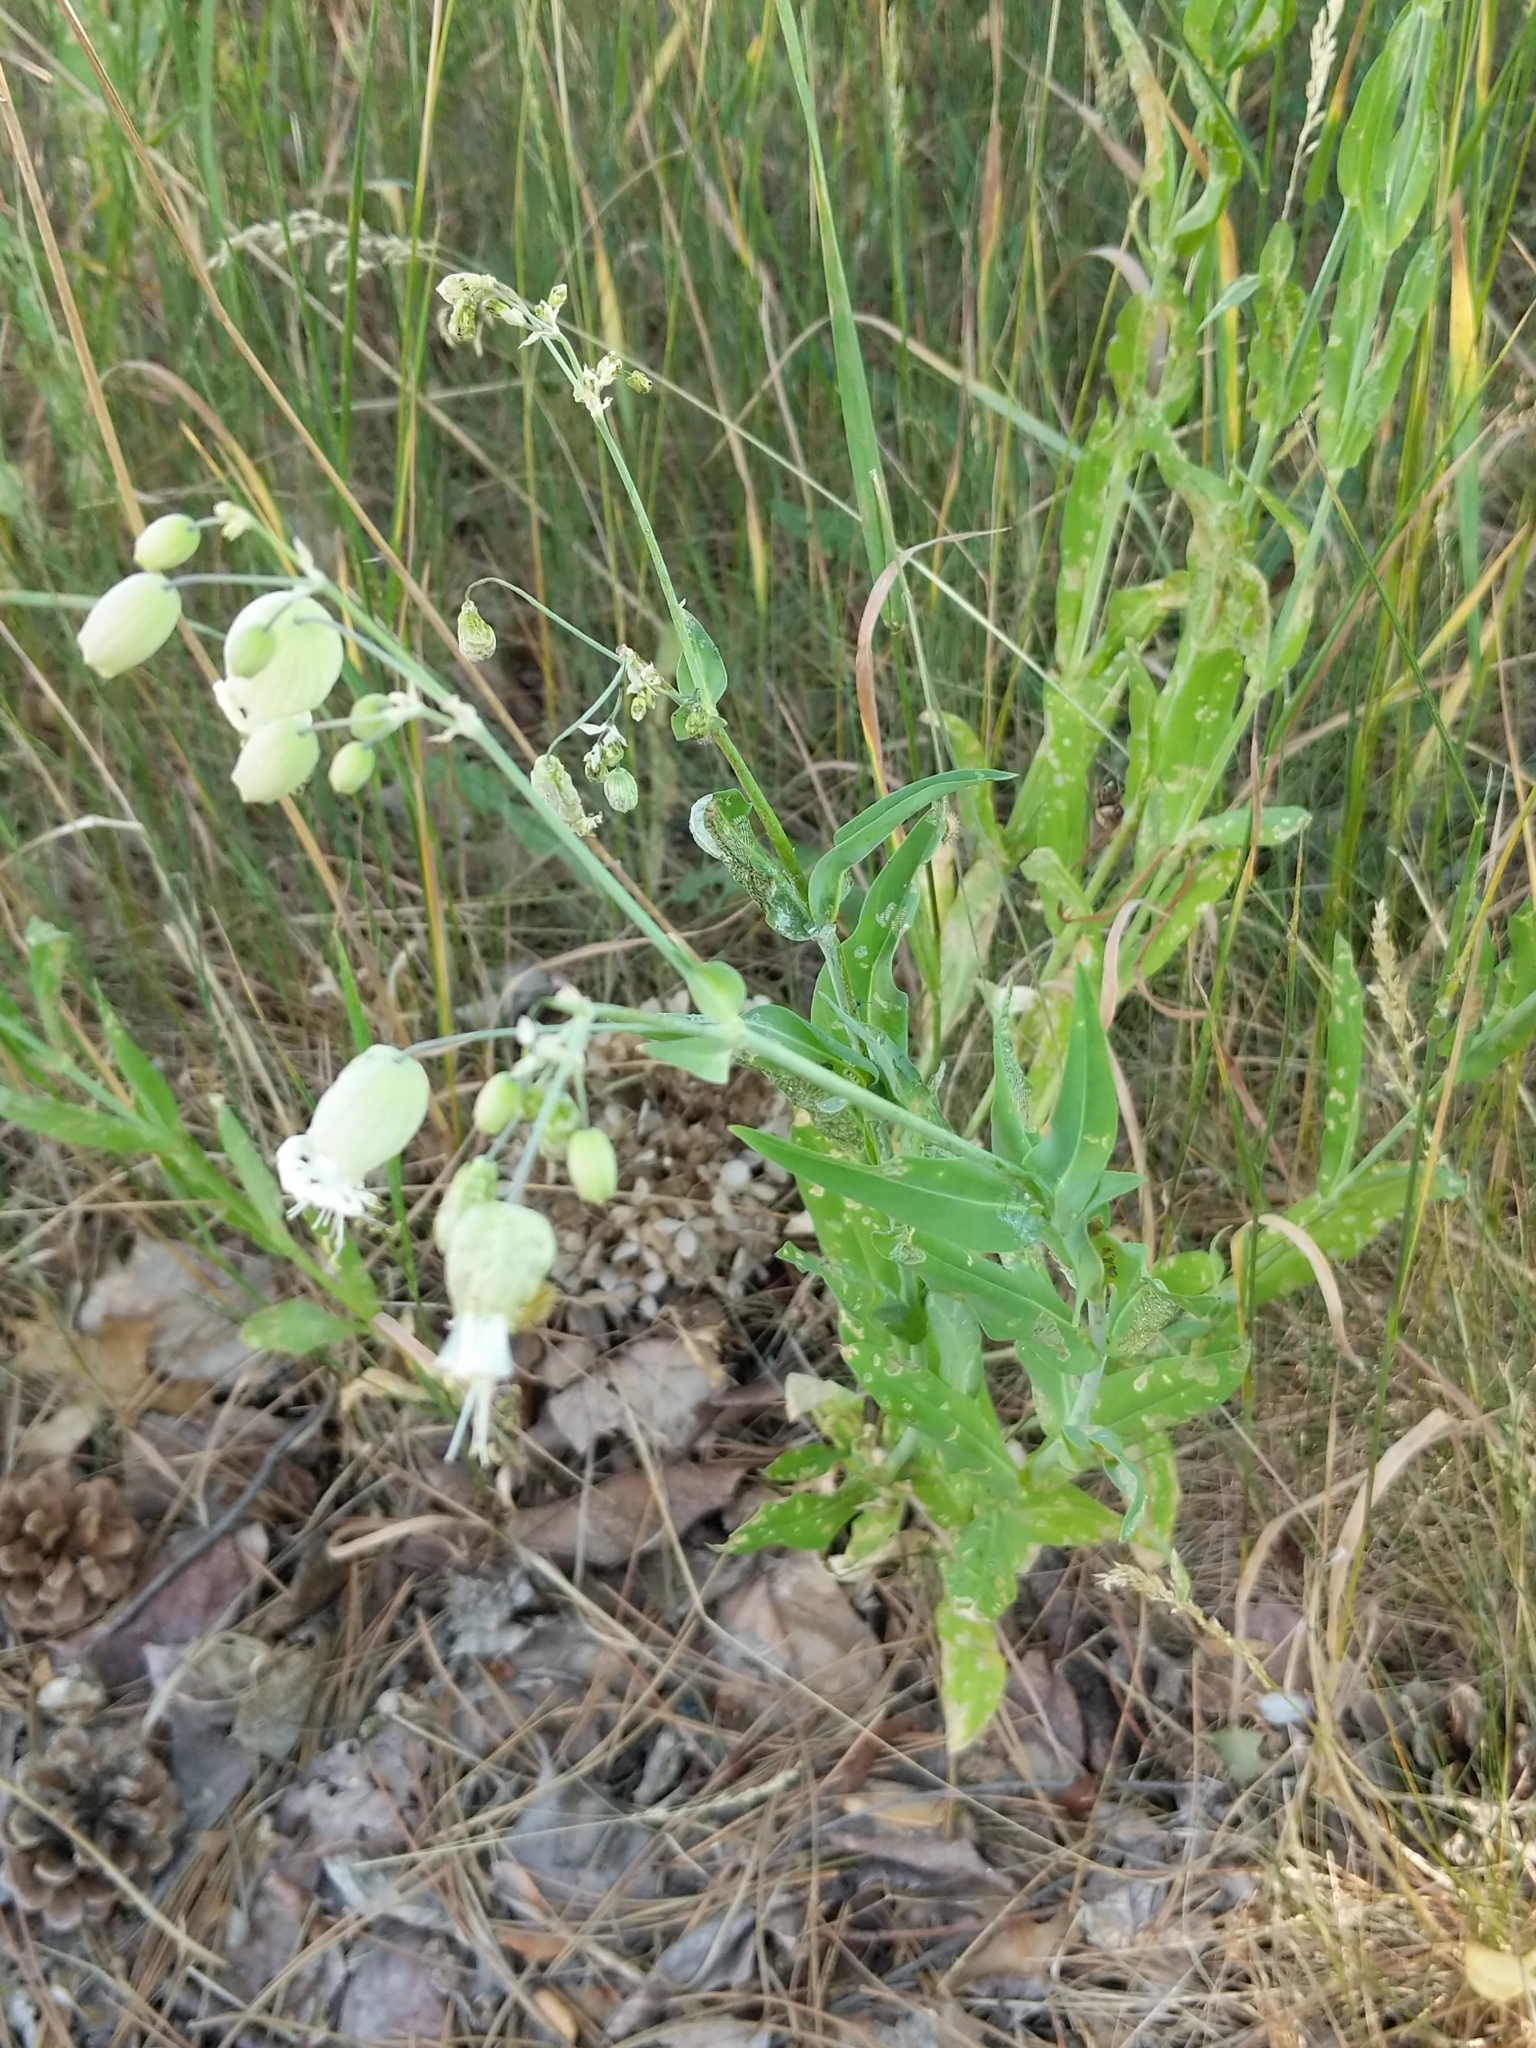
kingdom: Plantae
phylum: Tracheophyta
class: Magnoliopsida
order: Caryophyllales
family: Caryophyllaceae
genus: Silene
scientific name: Silene vulgaris
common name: Bladder campion
